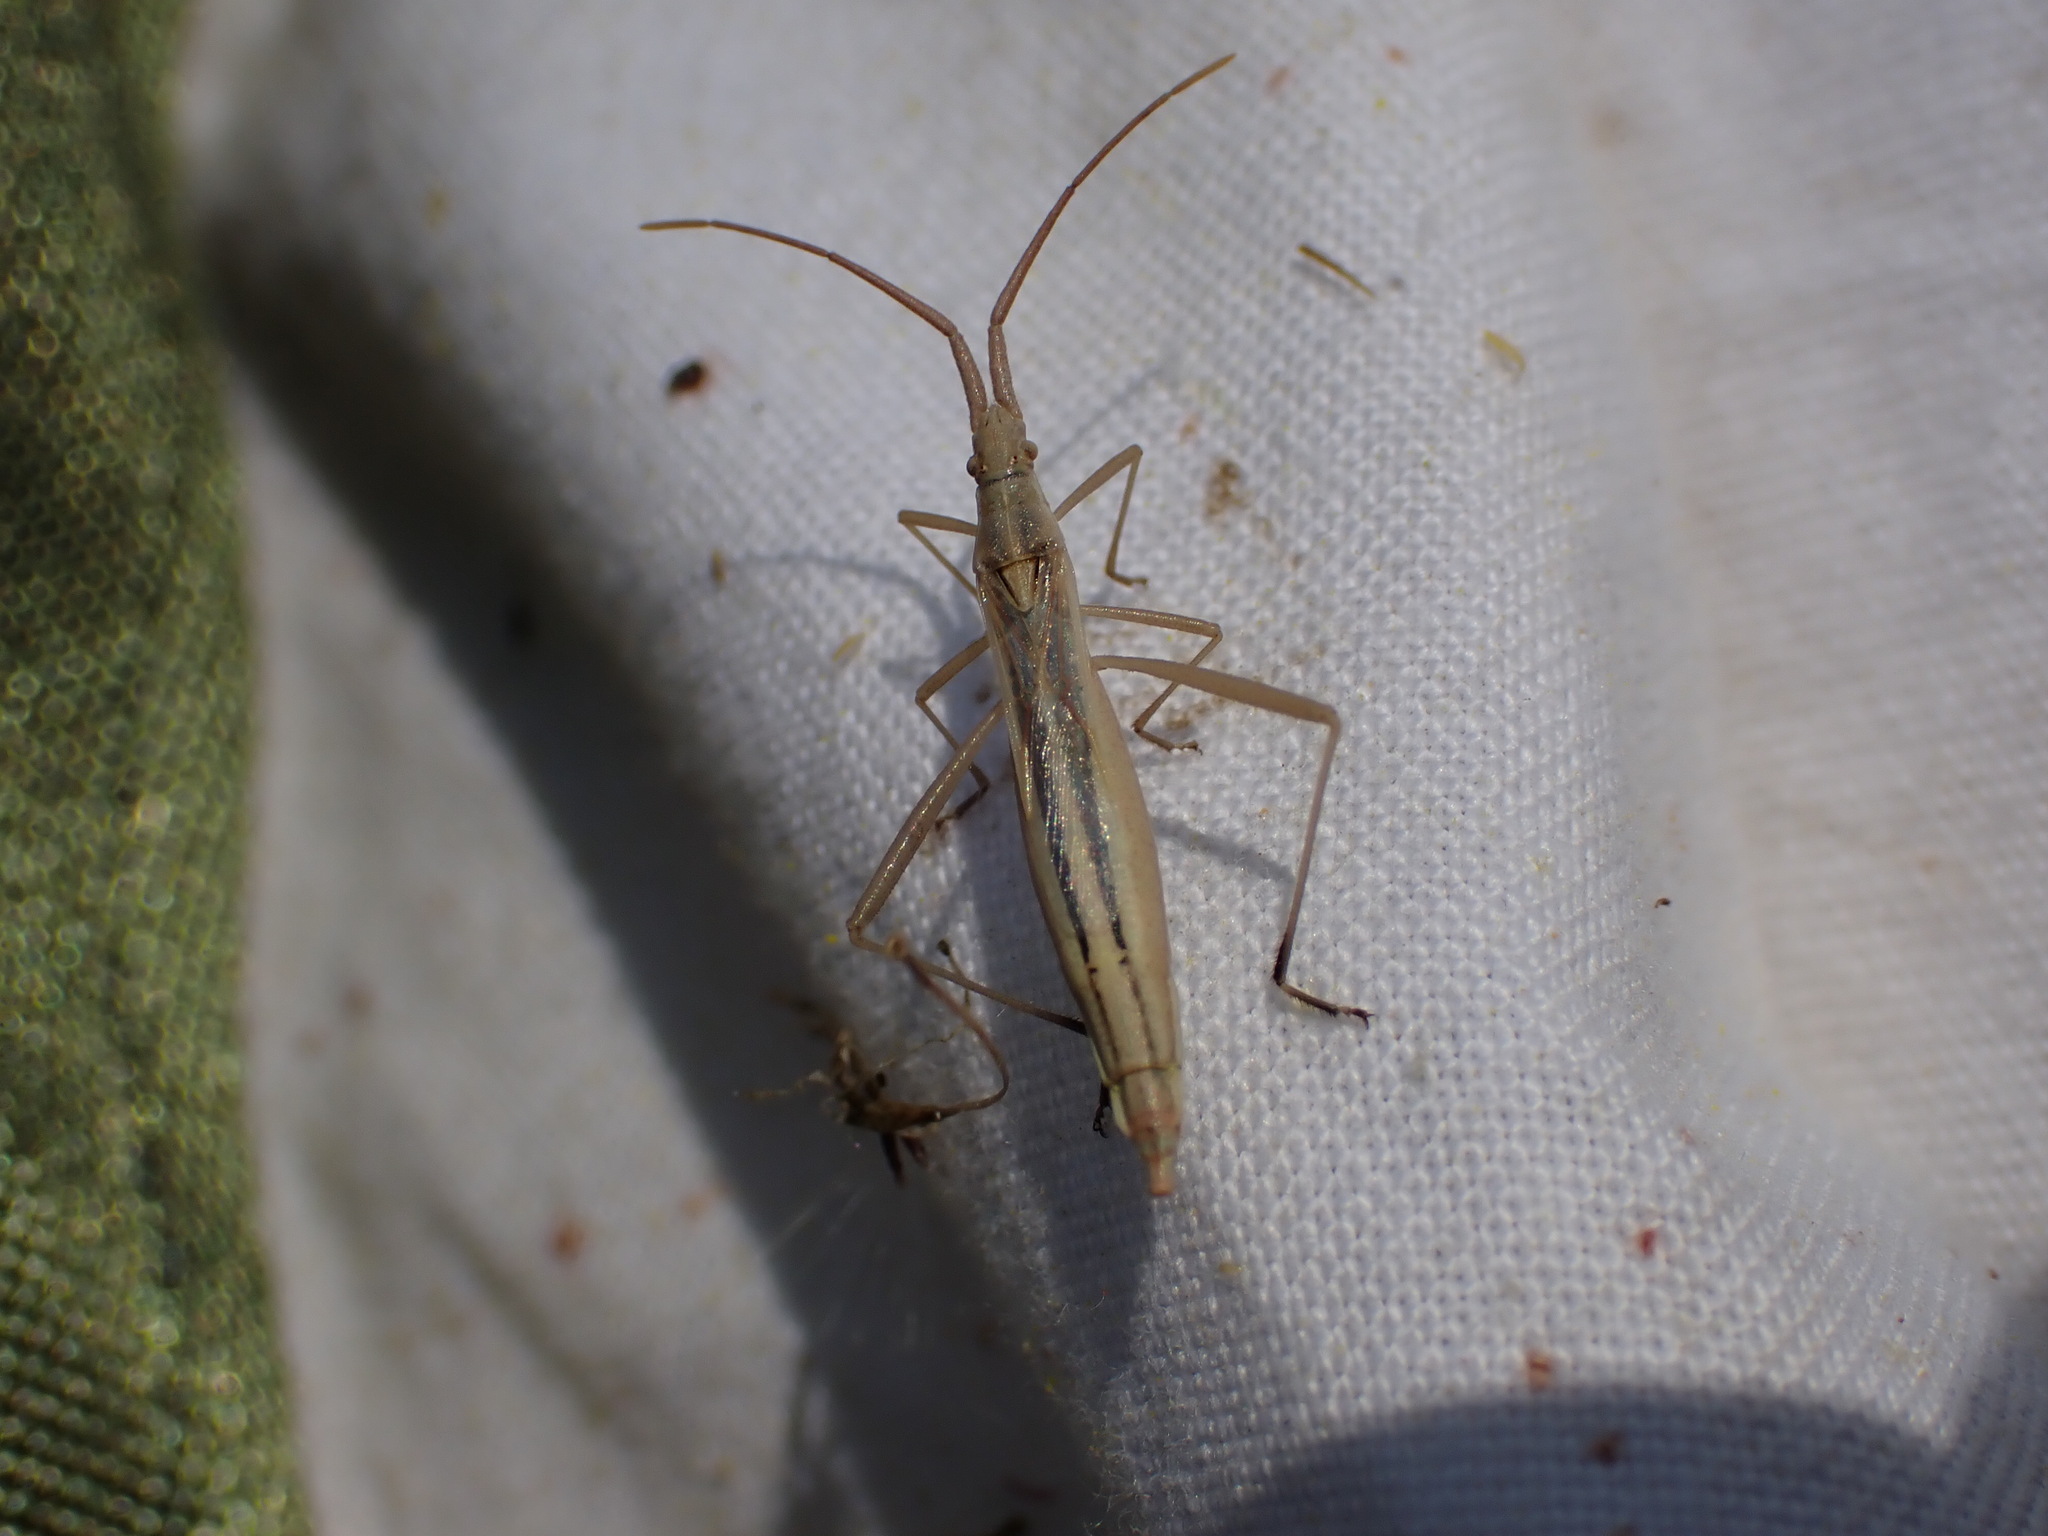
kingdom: Animalia
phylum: Arthropoda
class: Insecta
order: Hemiptera
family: Rhopalidae
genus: Chorosoma
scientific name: Chorosoma schillingii
